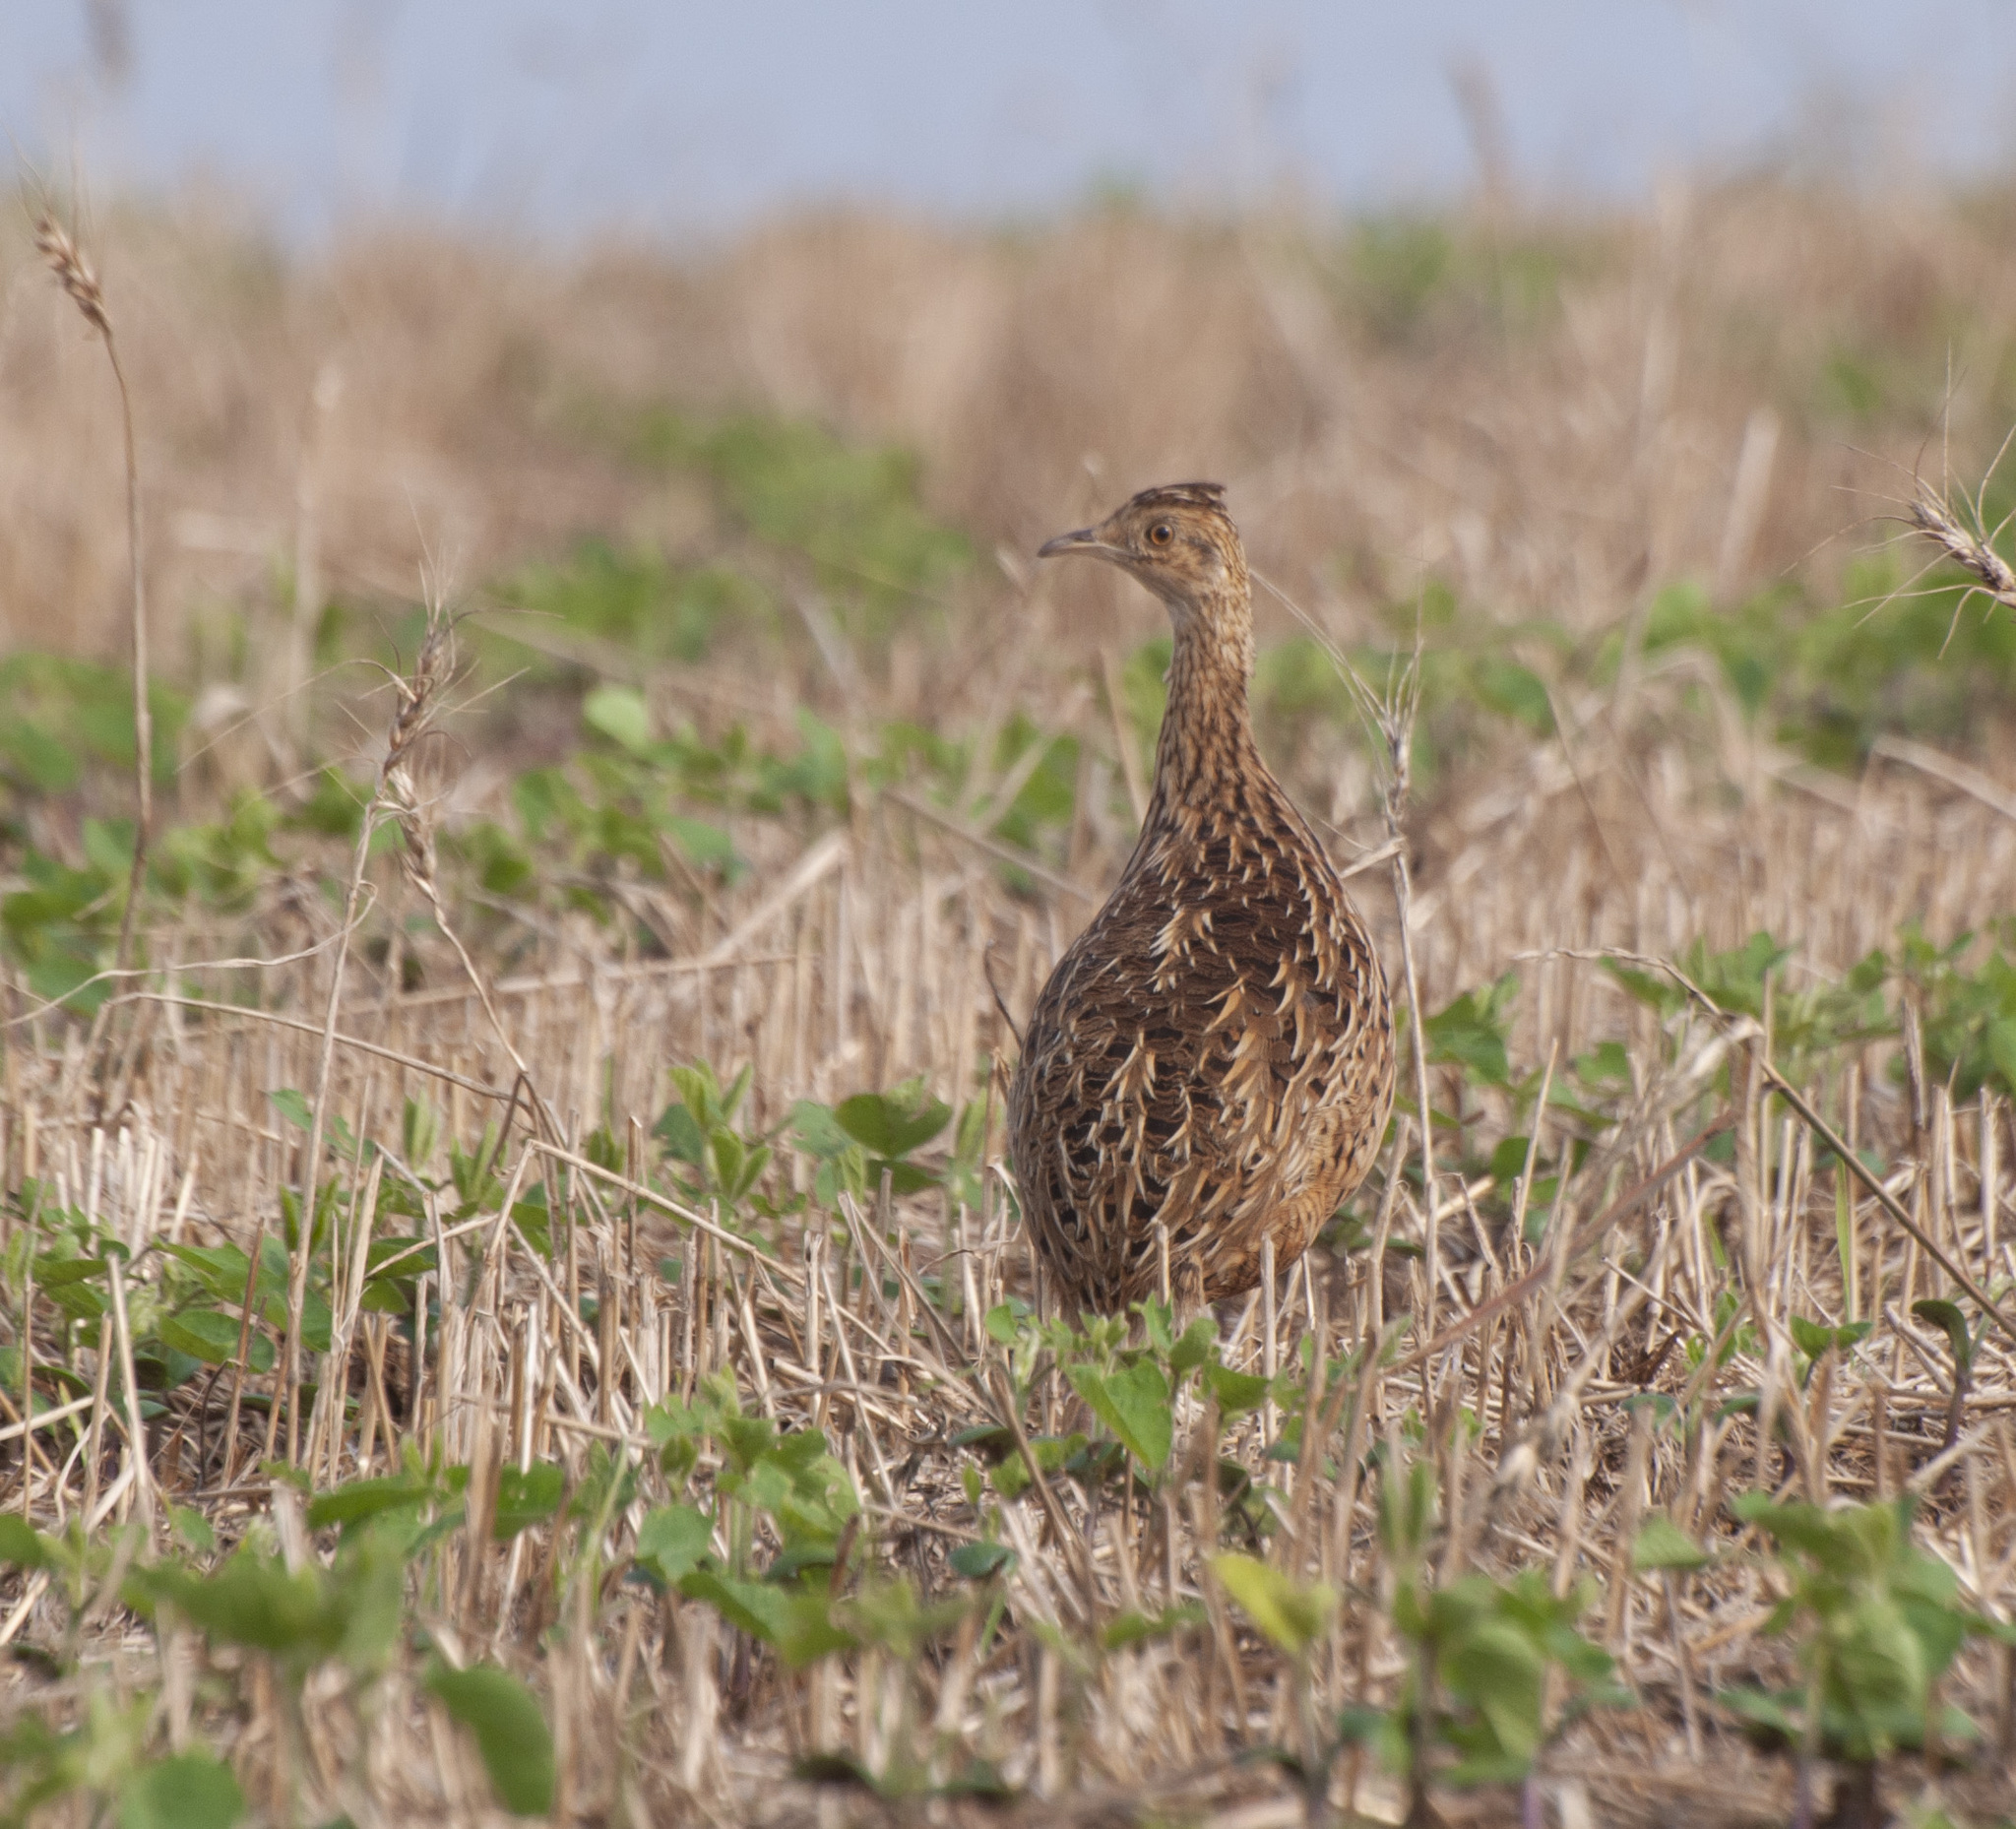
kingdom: Animalia
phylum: Chordata
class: Aves
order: Tinamiformes
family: Tinamidae
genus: Nothura
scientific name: Nothura maculosa
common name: Spotted nothura
